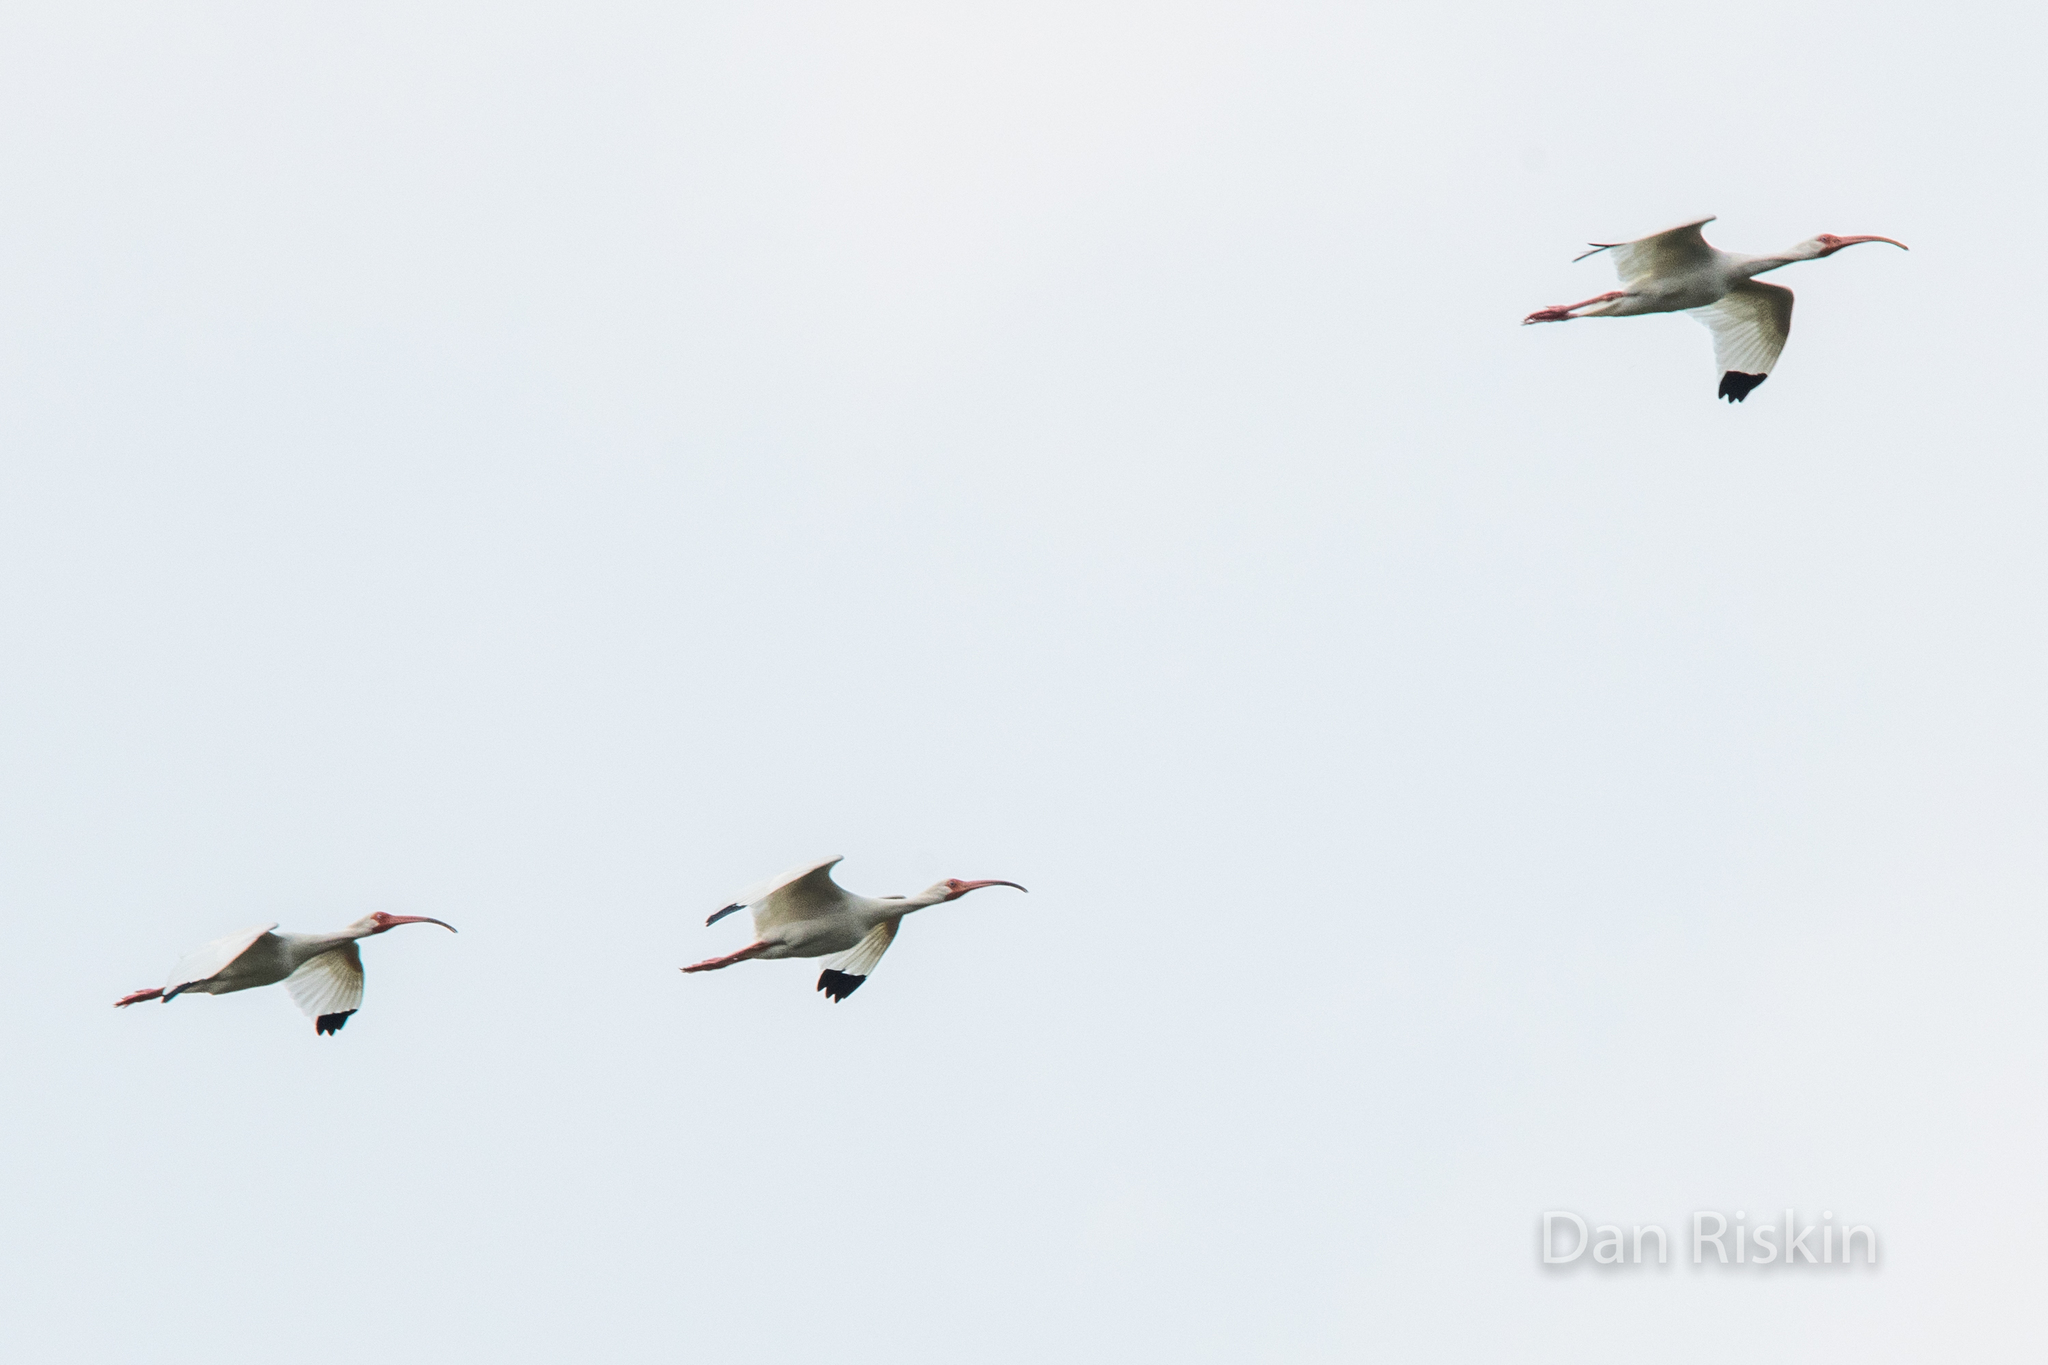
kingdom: Animalia
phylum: Chordata
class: Aves
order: Pelecaniformes
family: Threskiornithidae
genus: Eudocimus
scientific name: Eudocimus albus
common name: White ibis
